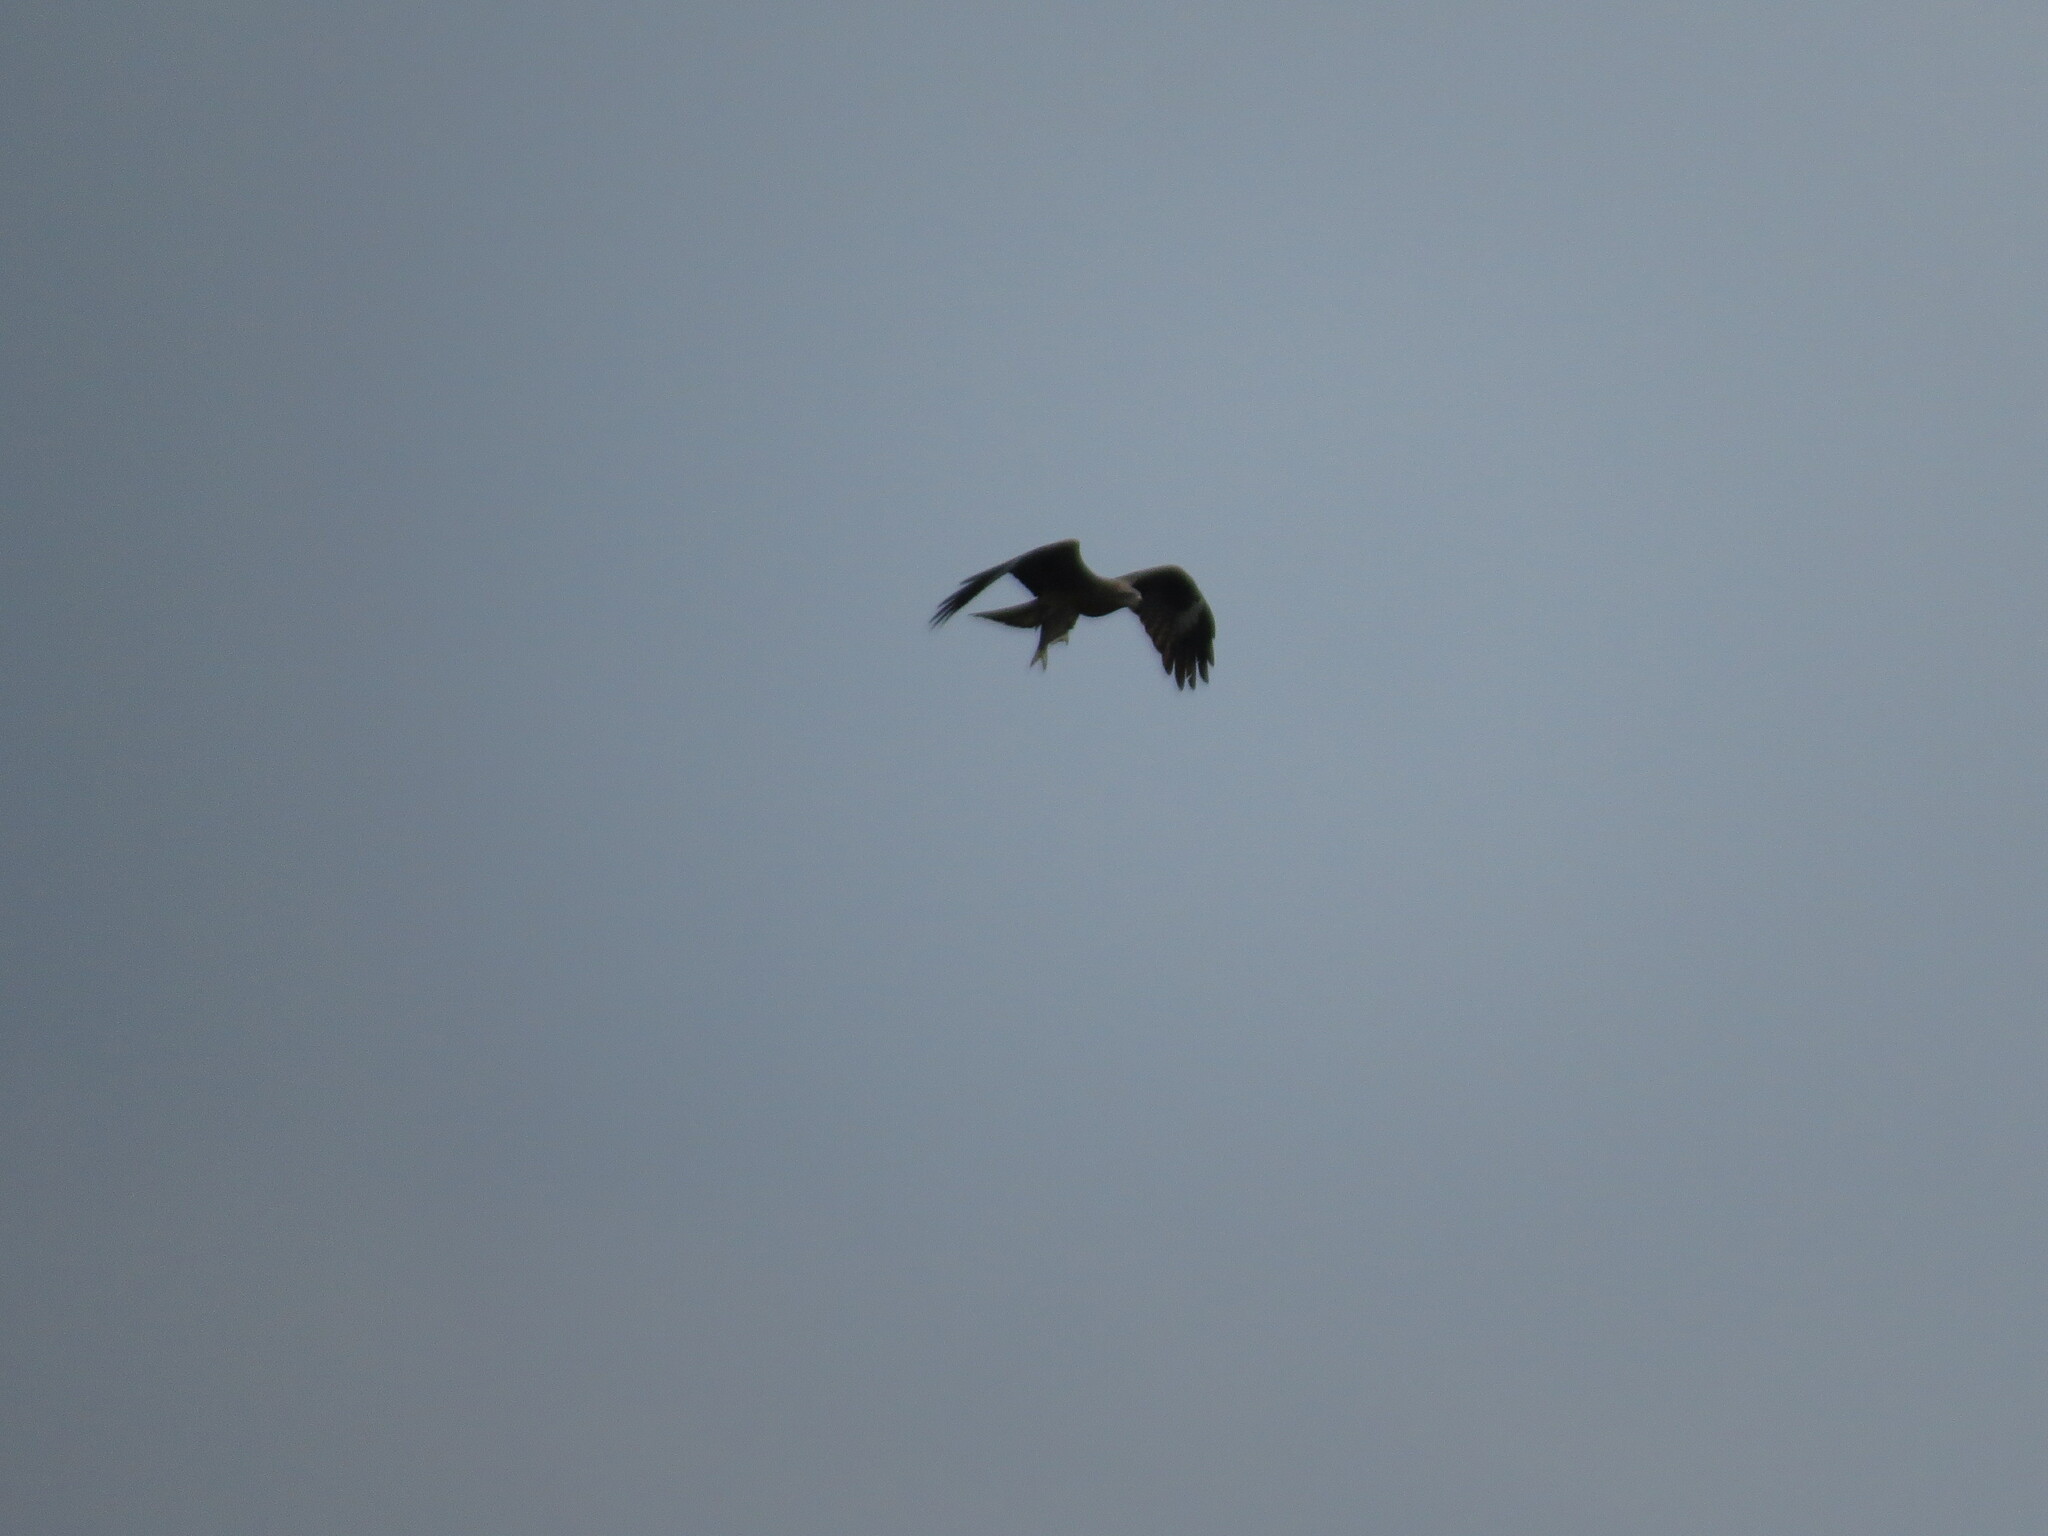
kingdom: Animalia
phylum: Chordata
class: Aves
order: Accipitriformes
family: Accipitridae
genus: Milvus
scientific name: Milvus migrans
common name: Black kite
